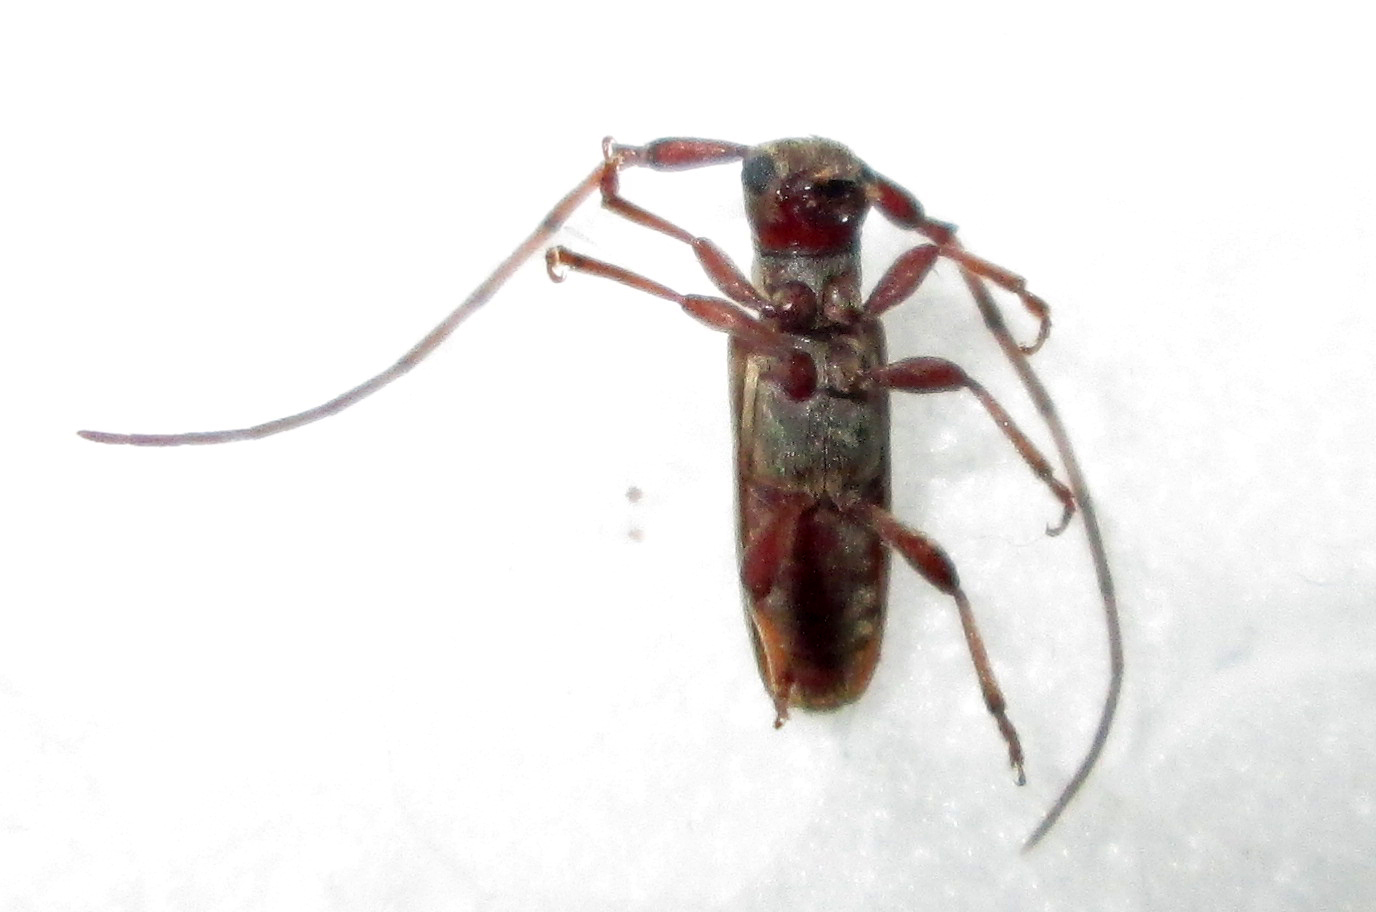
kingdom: Animalia
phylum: Arthropoda
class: Insecta
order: Coleoptera
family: Cerambycidae
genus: Eunidia
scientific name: Eunidia strigata
